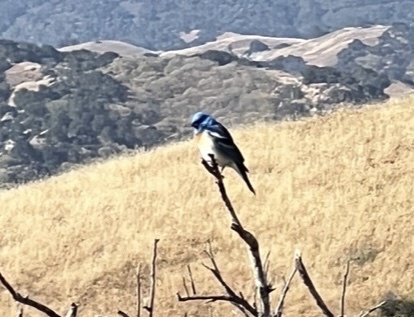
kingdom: Animalia
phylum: Chordata
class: Aves
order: Passeriformes
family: Cardinalidae
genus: Passerina
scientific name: Passerina amoena
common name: Lazuli bunting
